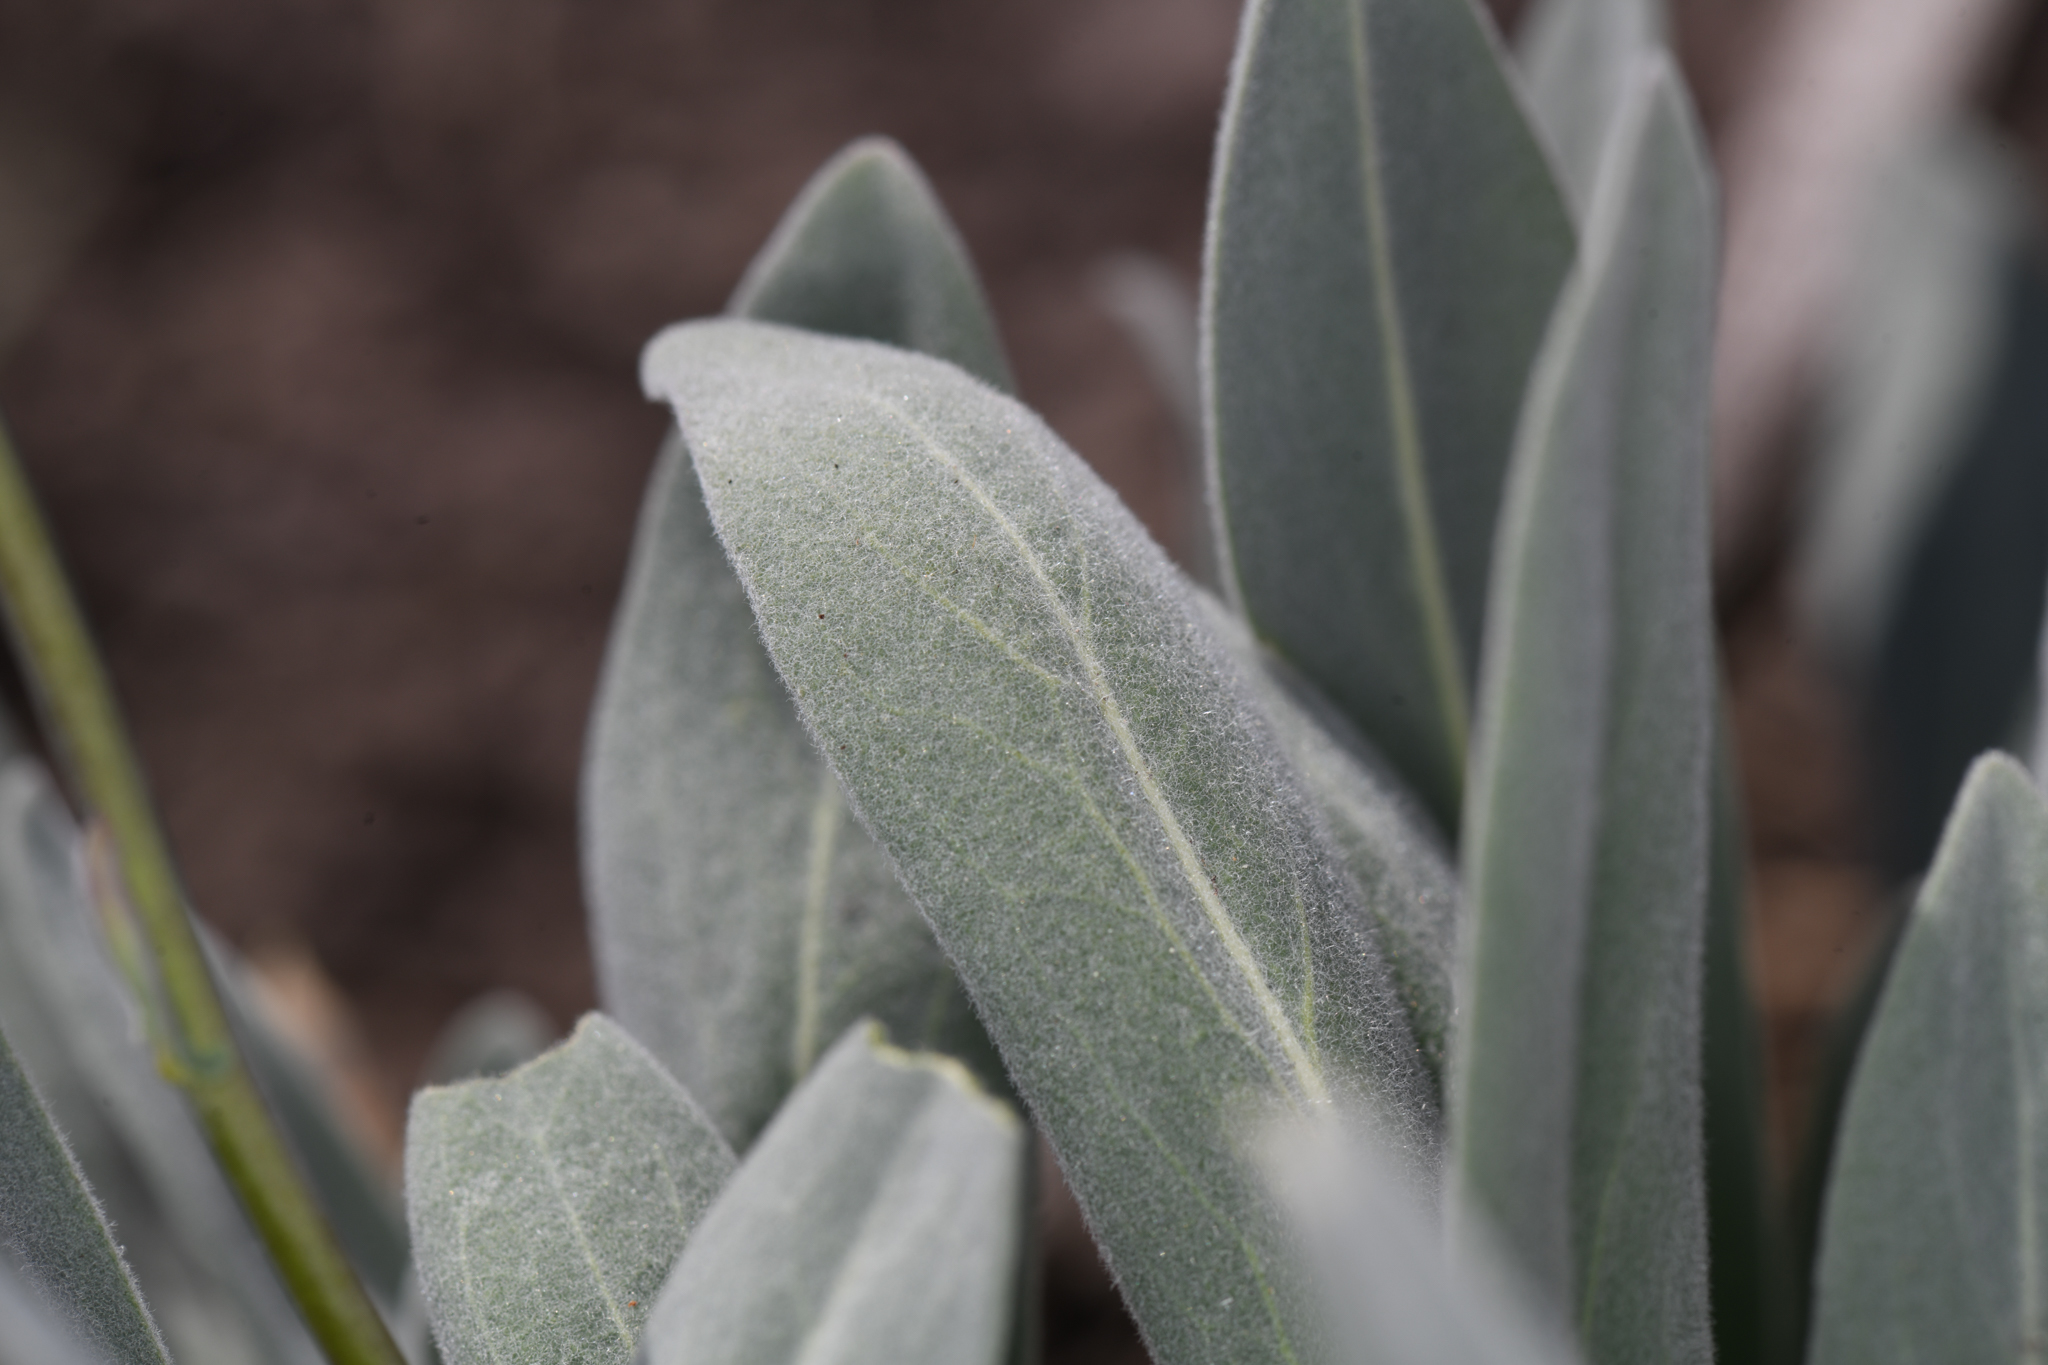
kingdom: Plantae
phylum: Tracheophyta
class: Magnoliopsida
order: Brassicales
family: Brassicaceae
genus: Phoenicaulis
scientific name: Phoenicaulis cheiranthoides
